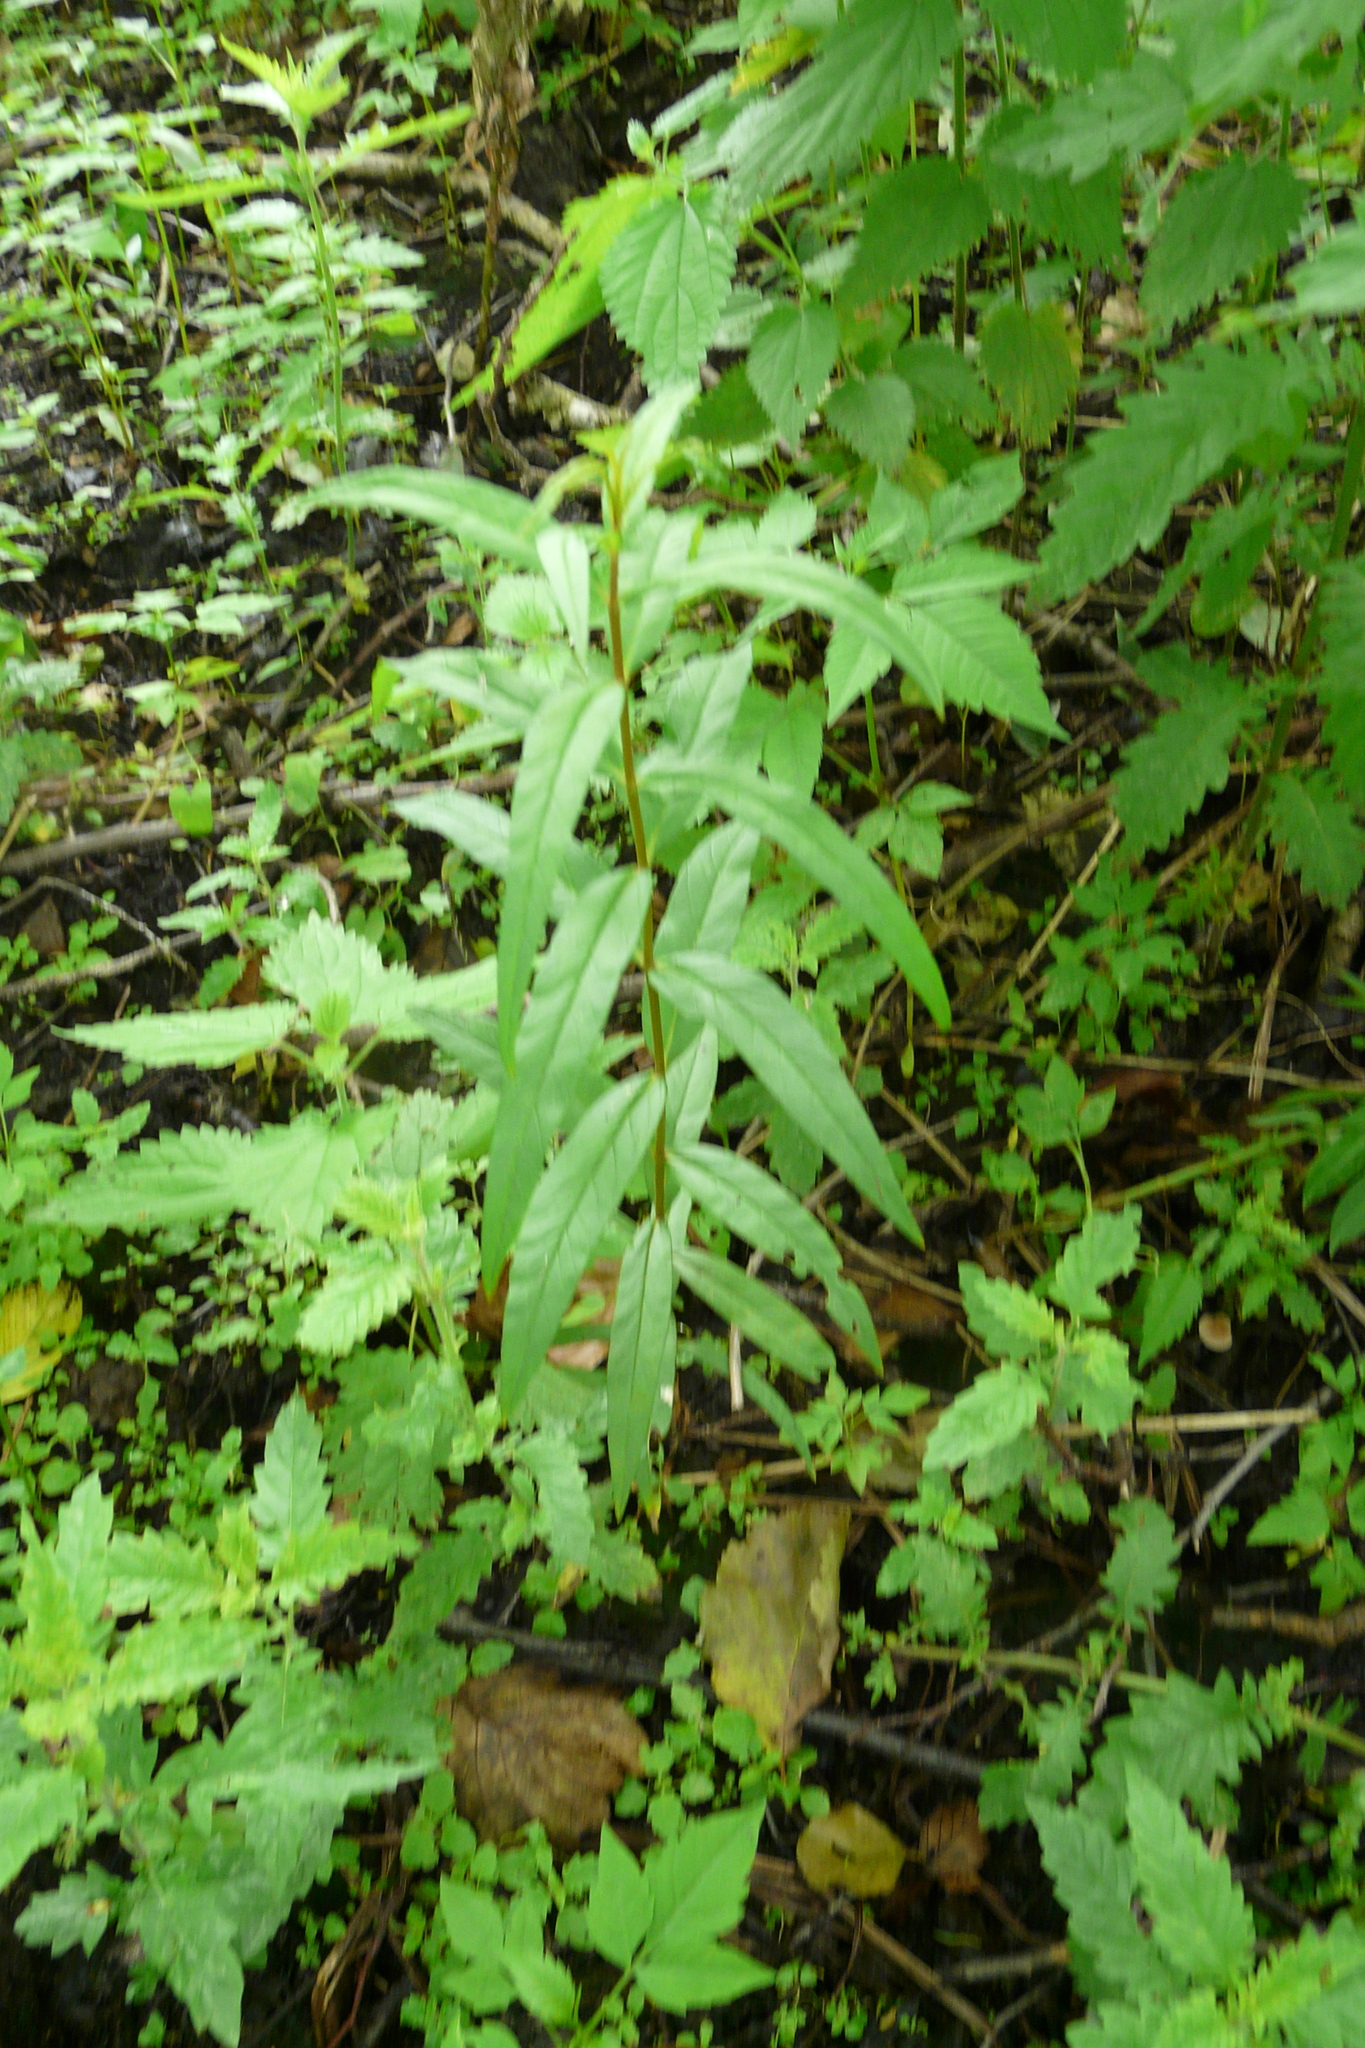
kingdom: Plantae
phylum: Tracheophyta
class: Magnoliopsida
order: Ericales
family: Primulaceae
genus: Lysimachia
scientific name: Lysimachia thyrsiflora
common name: Tufted loosestrife
